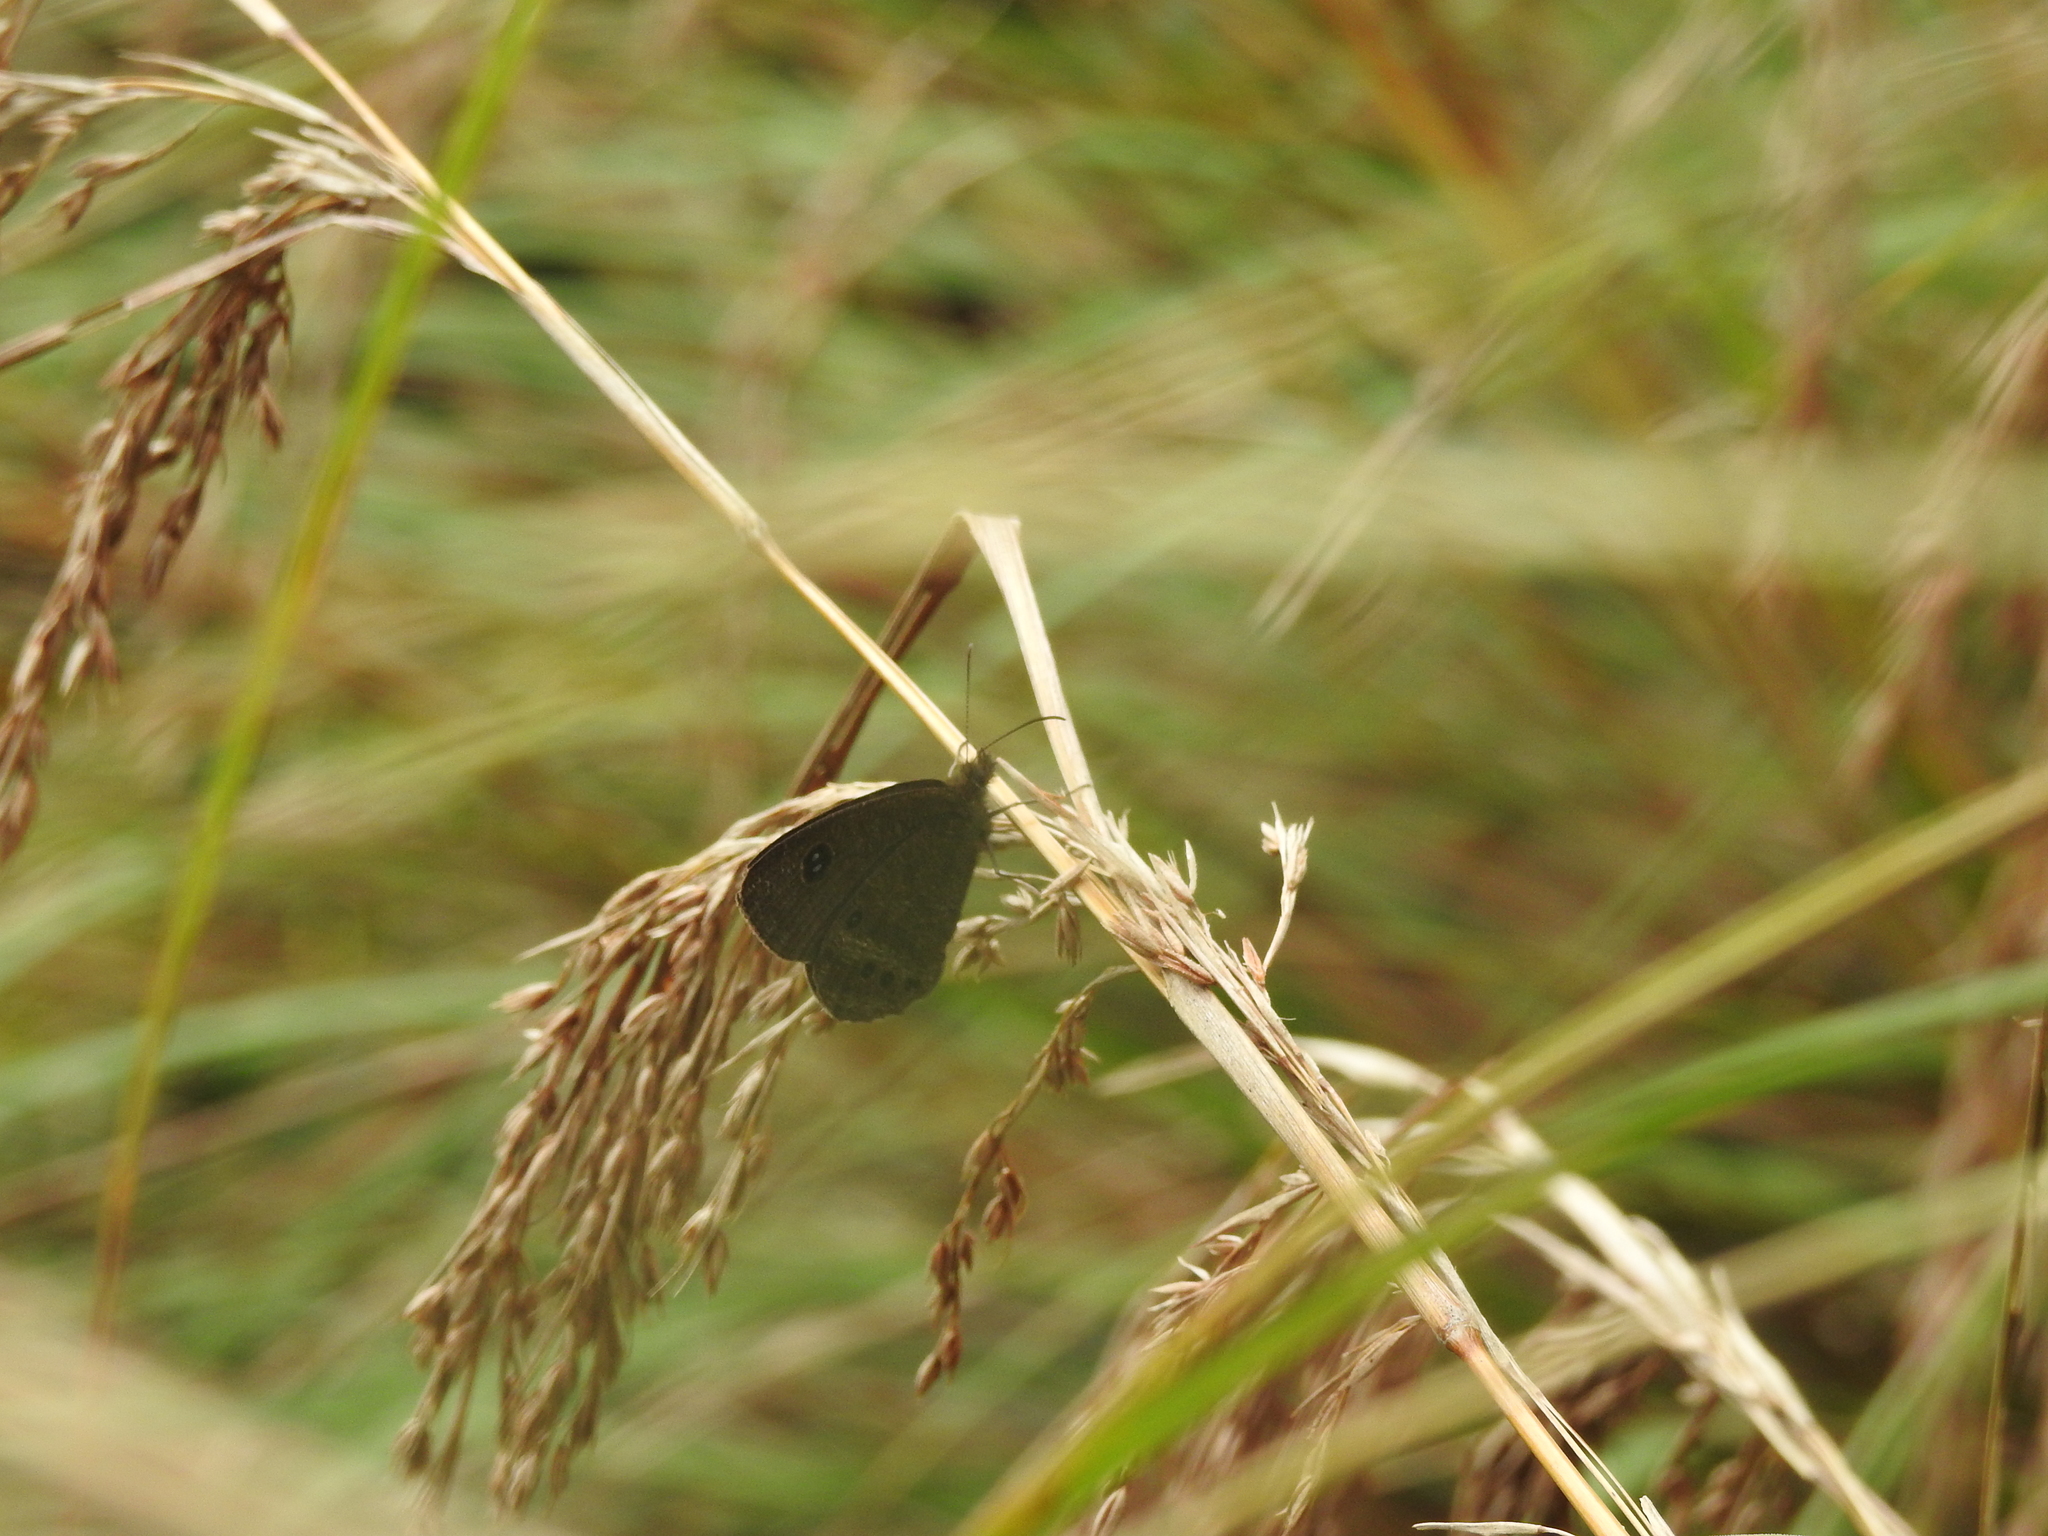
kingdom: Animalia
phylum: Arthropoda
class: Insecta
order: Lepidoptera
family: Nymphalidae
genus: Ypthima
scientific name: Ypthima ypthimoides
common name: Palni four-ring
